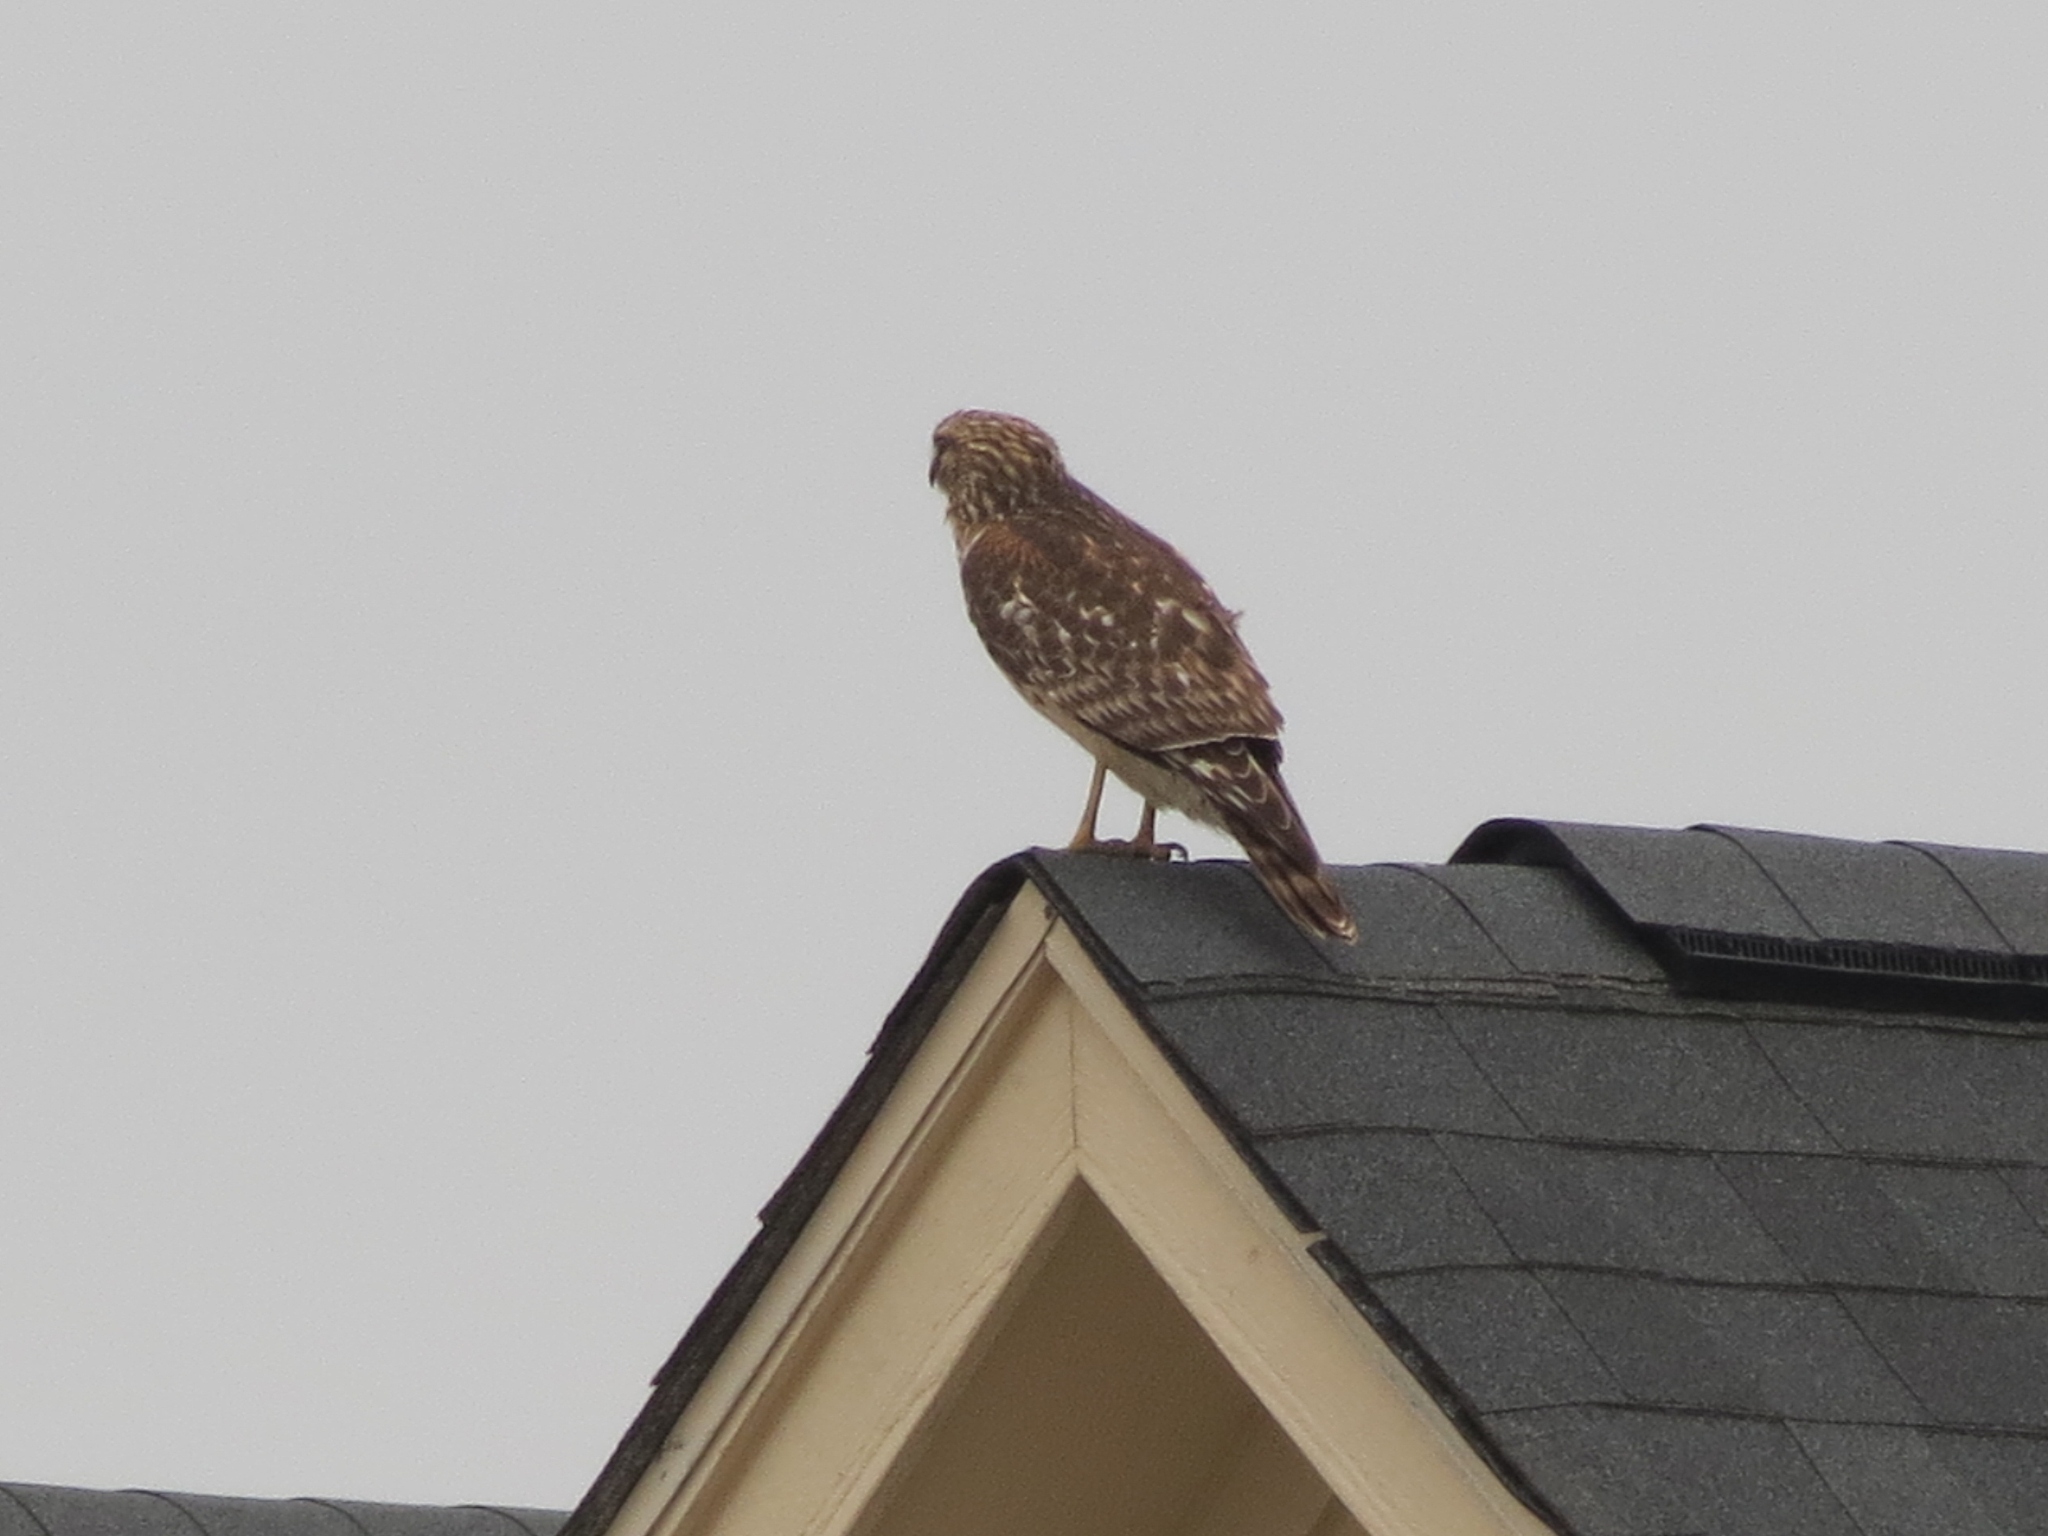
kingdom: Animalia
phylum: Chordata
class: Aves
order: Accipitriformes
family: Accipitridae
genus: Buteo
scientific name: Buteo lineatus
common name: Red-shouldered hawk
